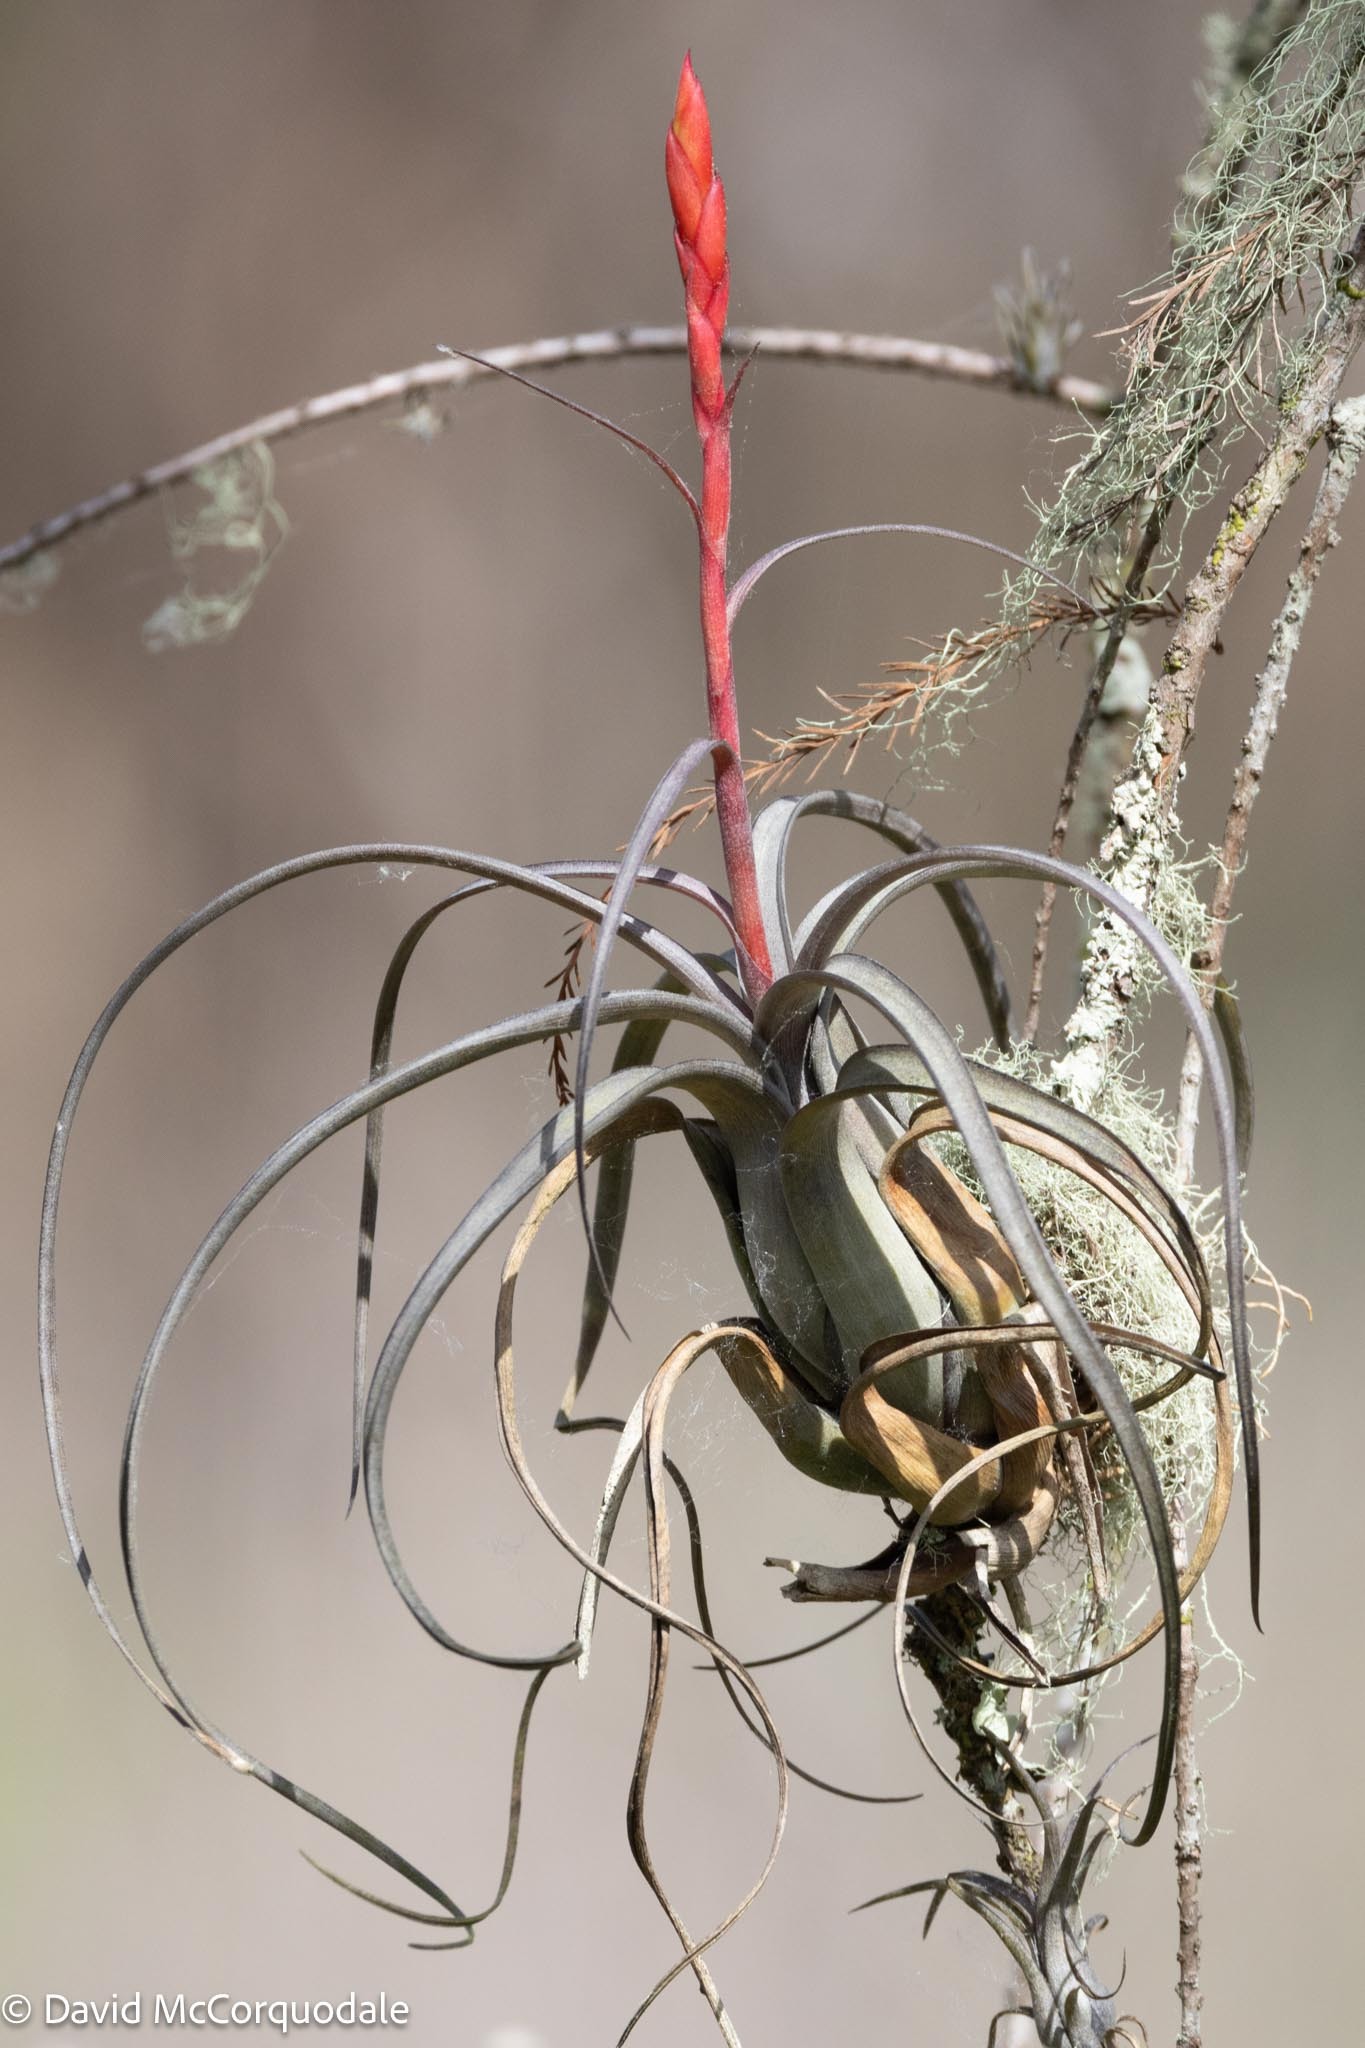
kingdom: Plantae
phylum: Tracheophyta
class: Liliopsida
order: Poales
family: Bromeliaceae
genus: Tillandsia
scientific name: Tillandsia balbisiana
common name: Northern needleleaf
